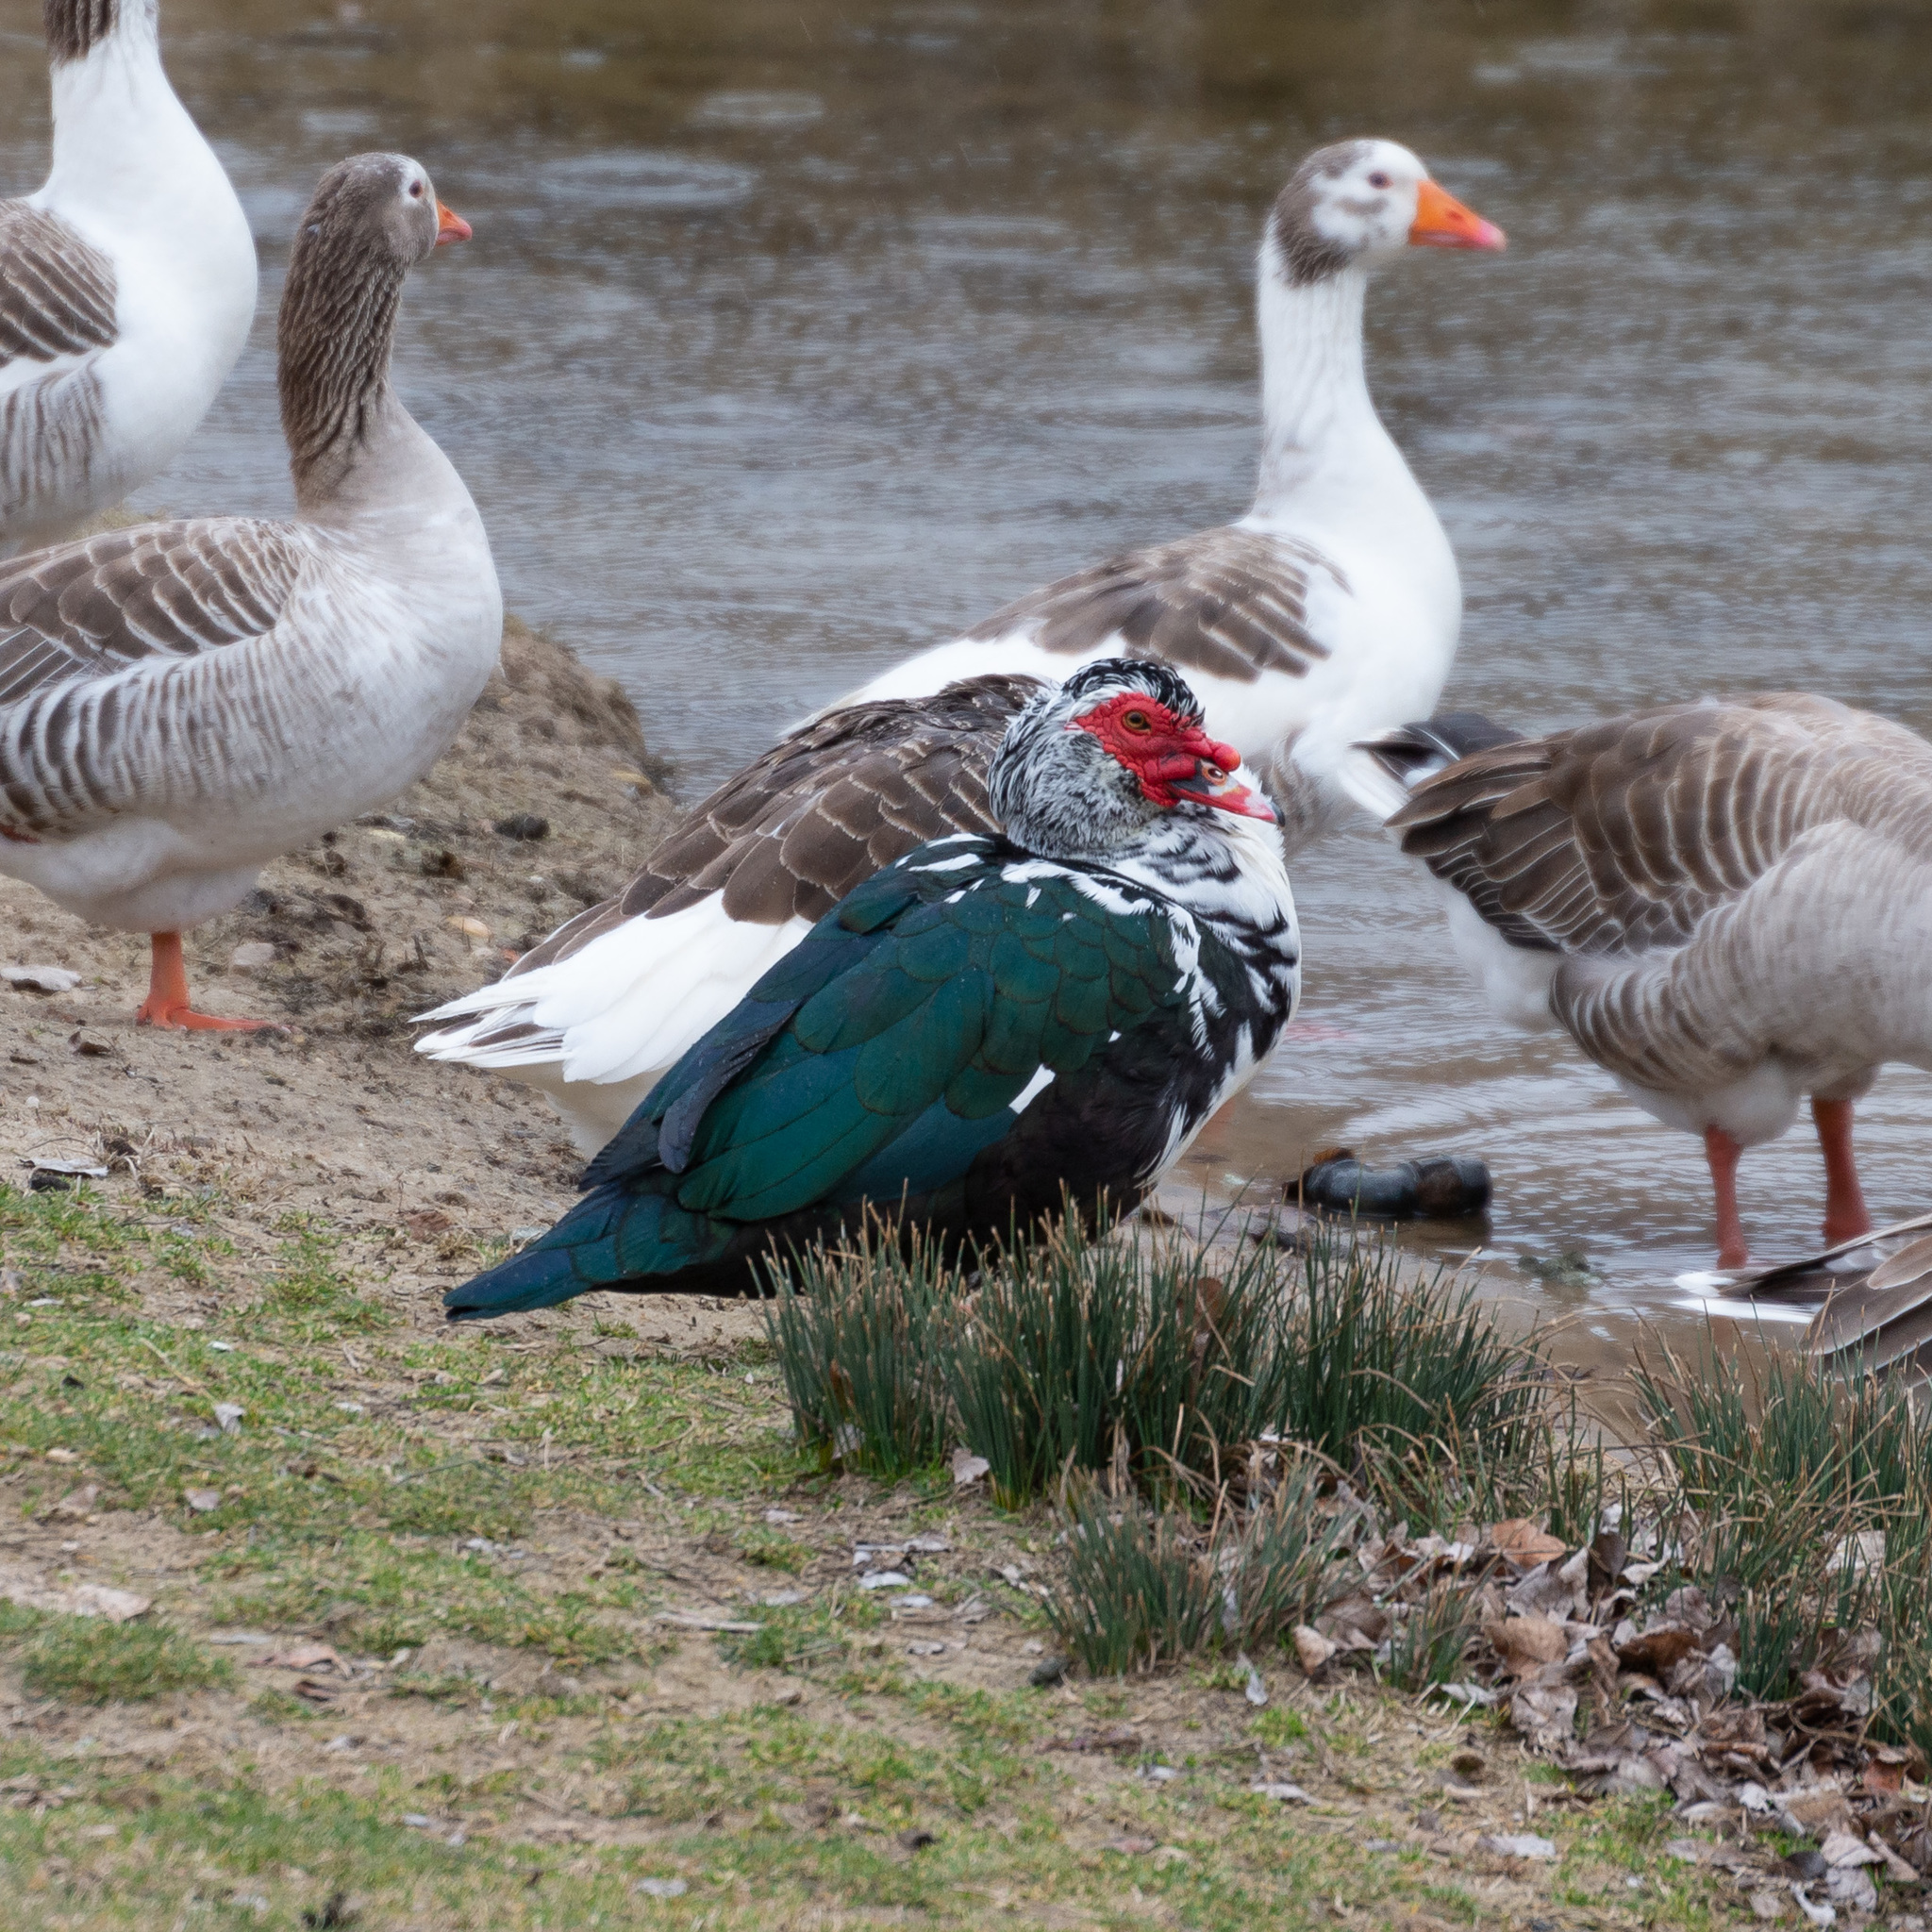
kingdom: Animalia
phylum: Chordata
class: Aves
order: Anseriformes
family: Anatidae
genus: Cairina
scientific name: Cairina moschata
